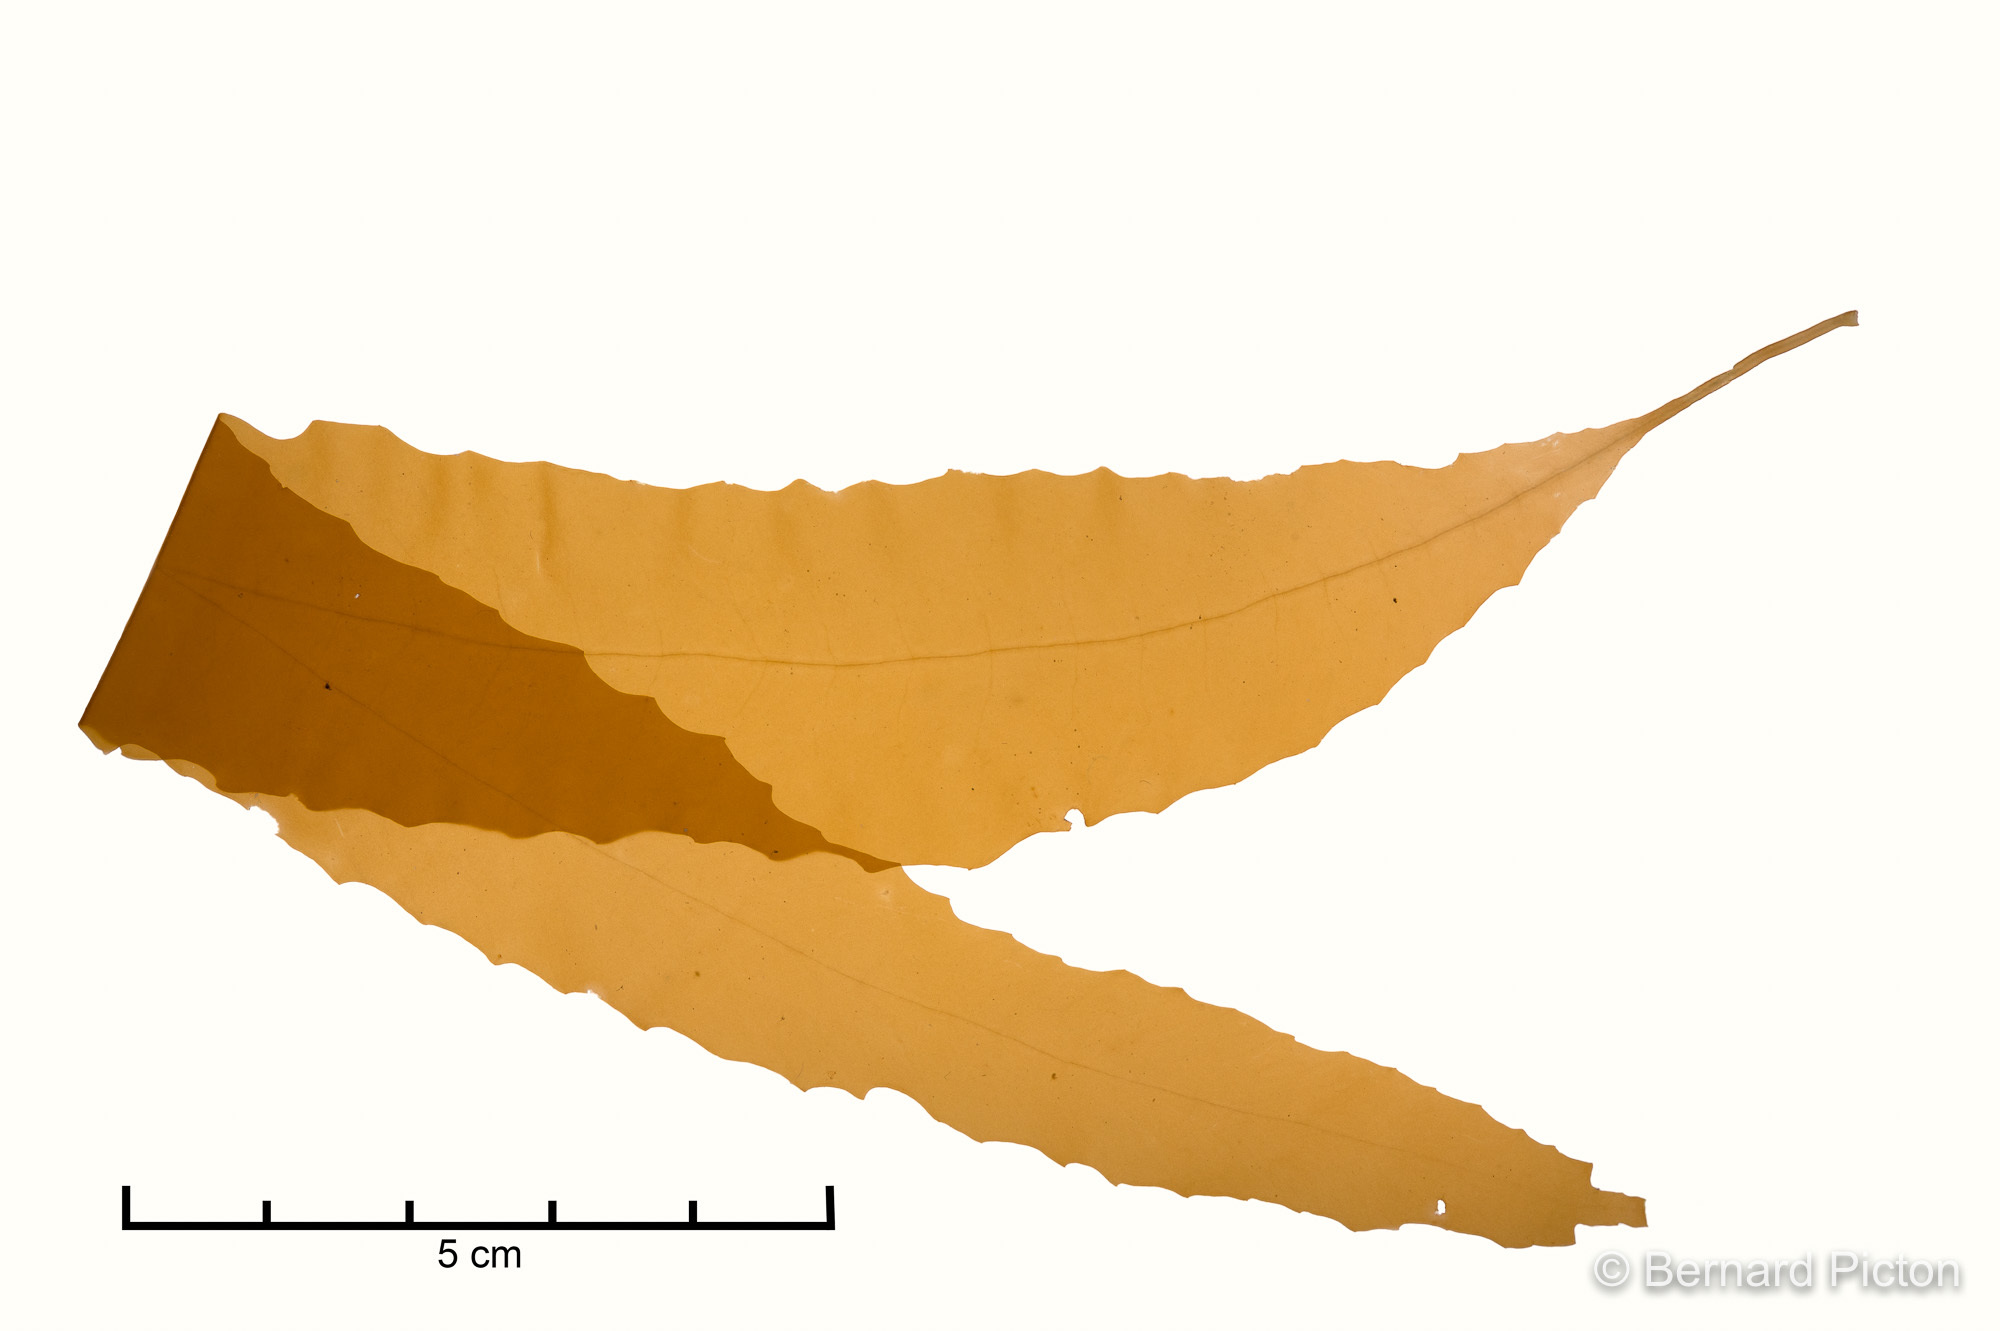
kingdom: Chromista
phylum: Ochrophyta
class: Phaeophyceae
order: Desmarestiales
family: Desmarestiaceae
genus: Desmarestia
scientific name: Desmarestia dudresnayi
